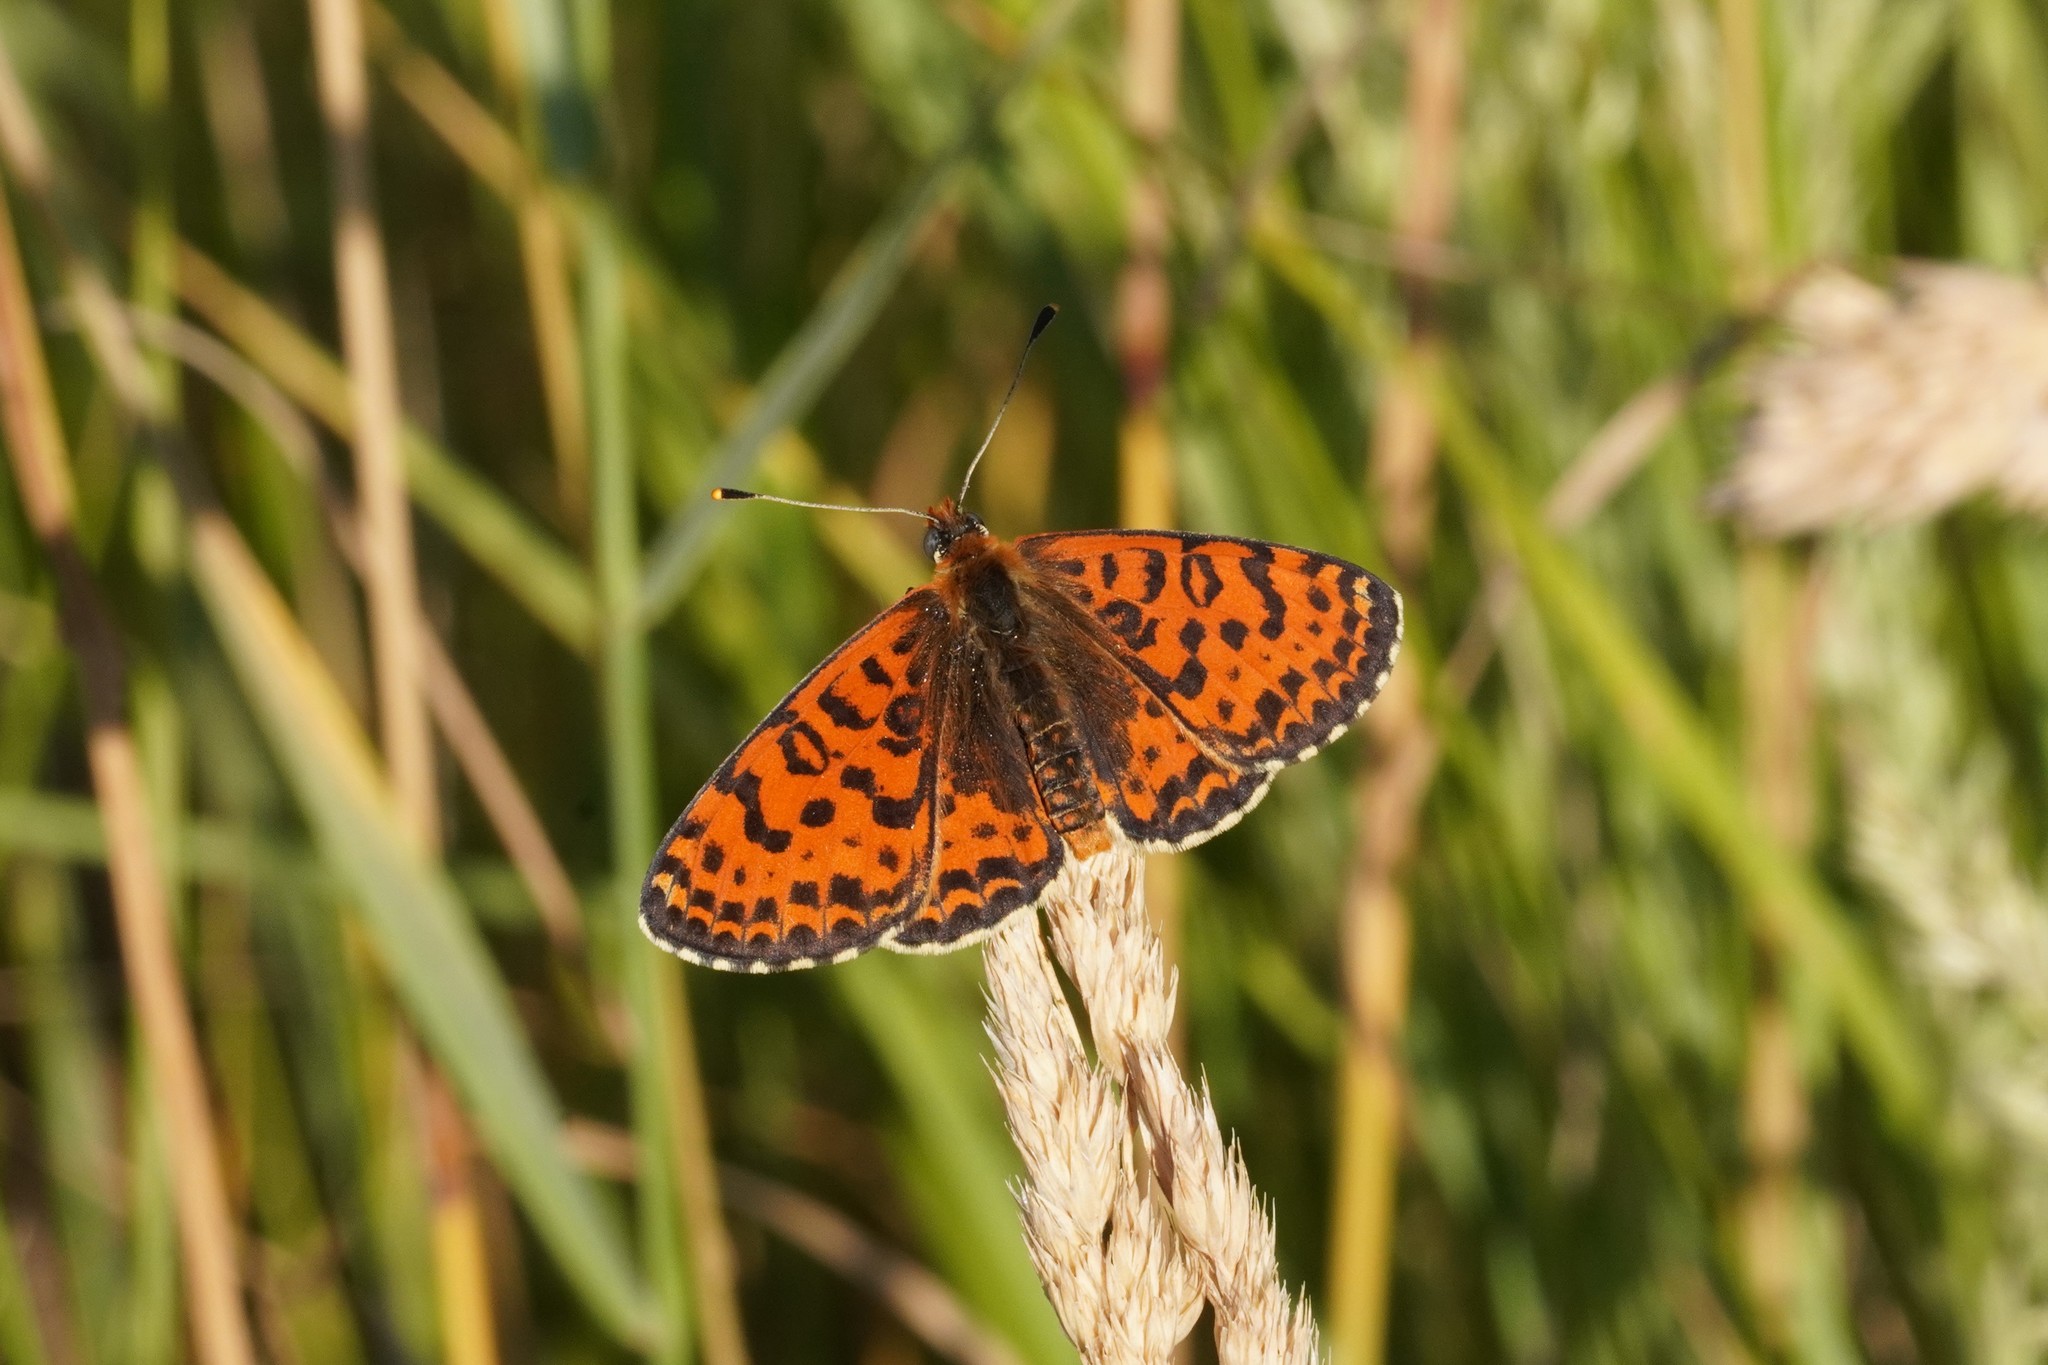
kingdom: Animalia
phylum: Arthropoda
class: Insecta
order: Lepidoptera
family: Nymphalidae
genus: Melitaea
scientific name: Melitaea didyma
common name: Spotted fritillary
